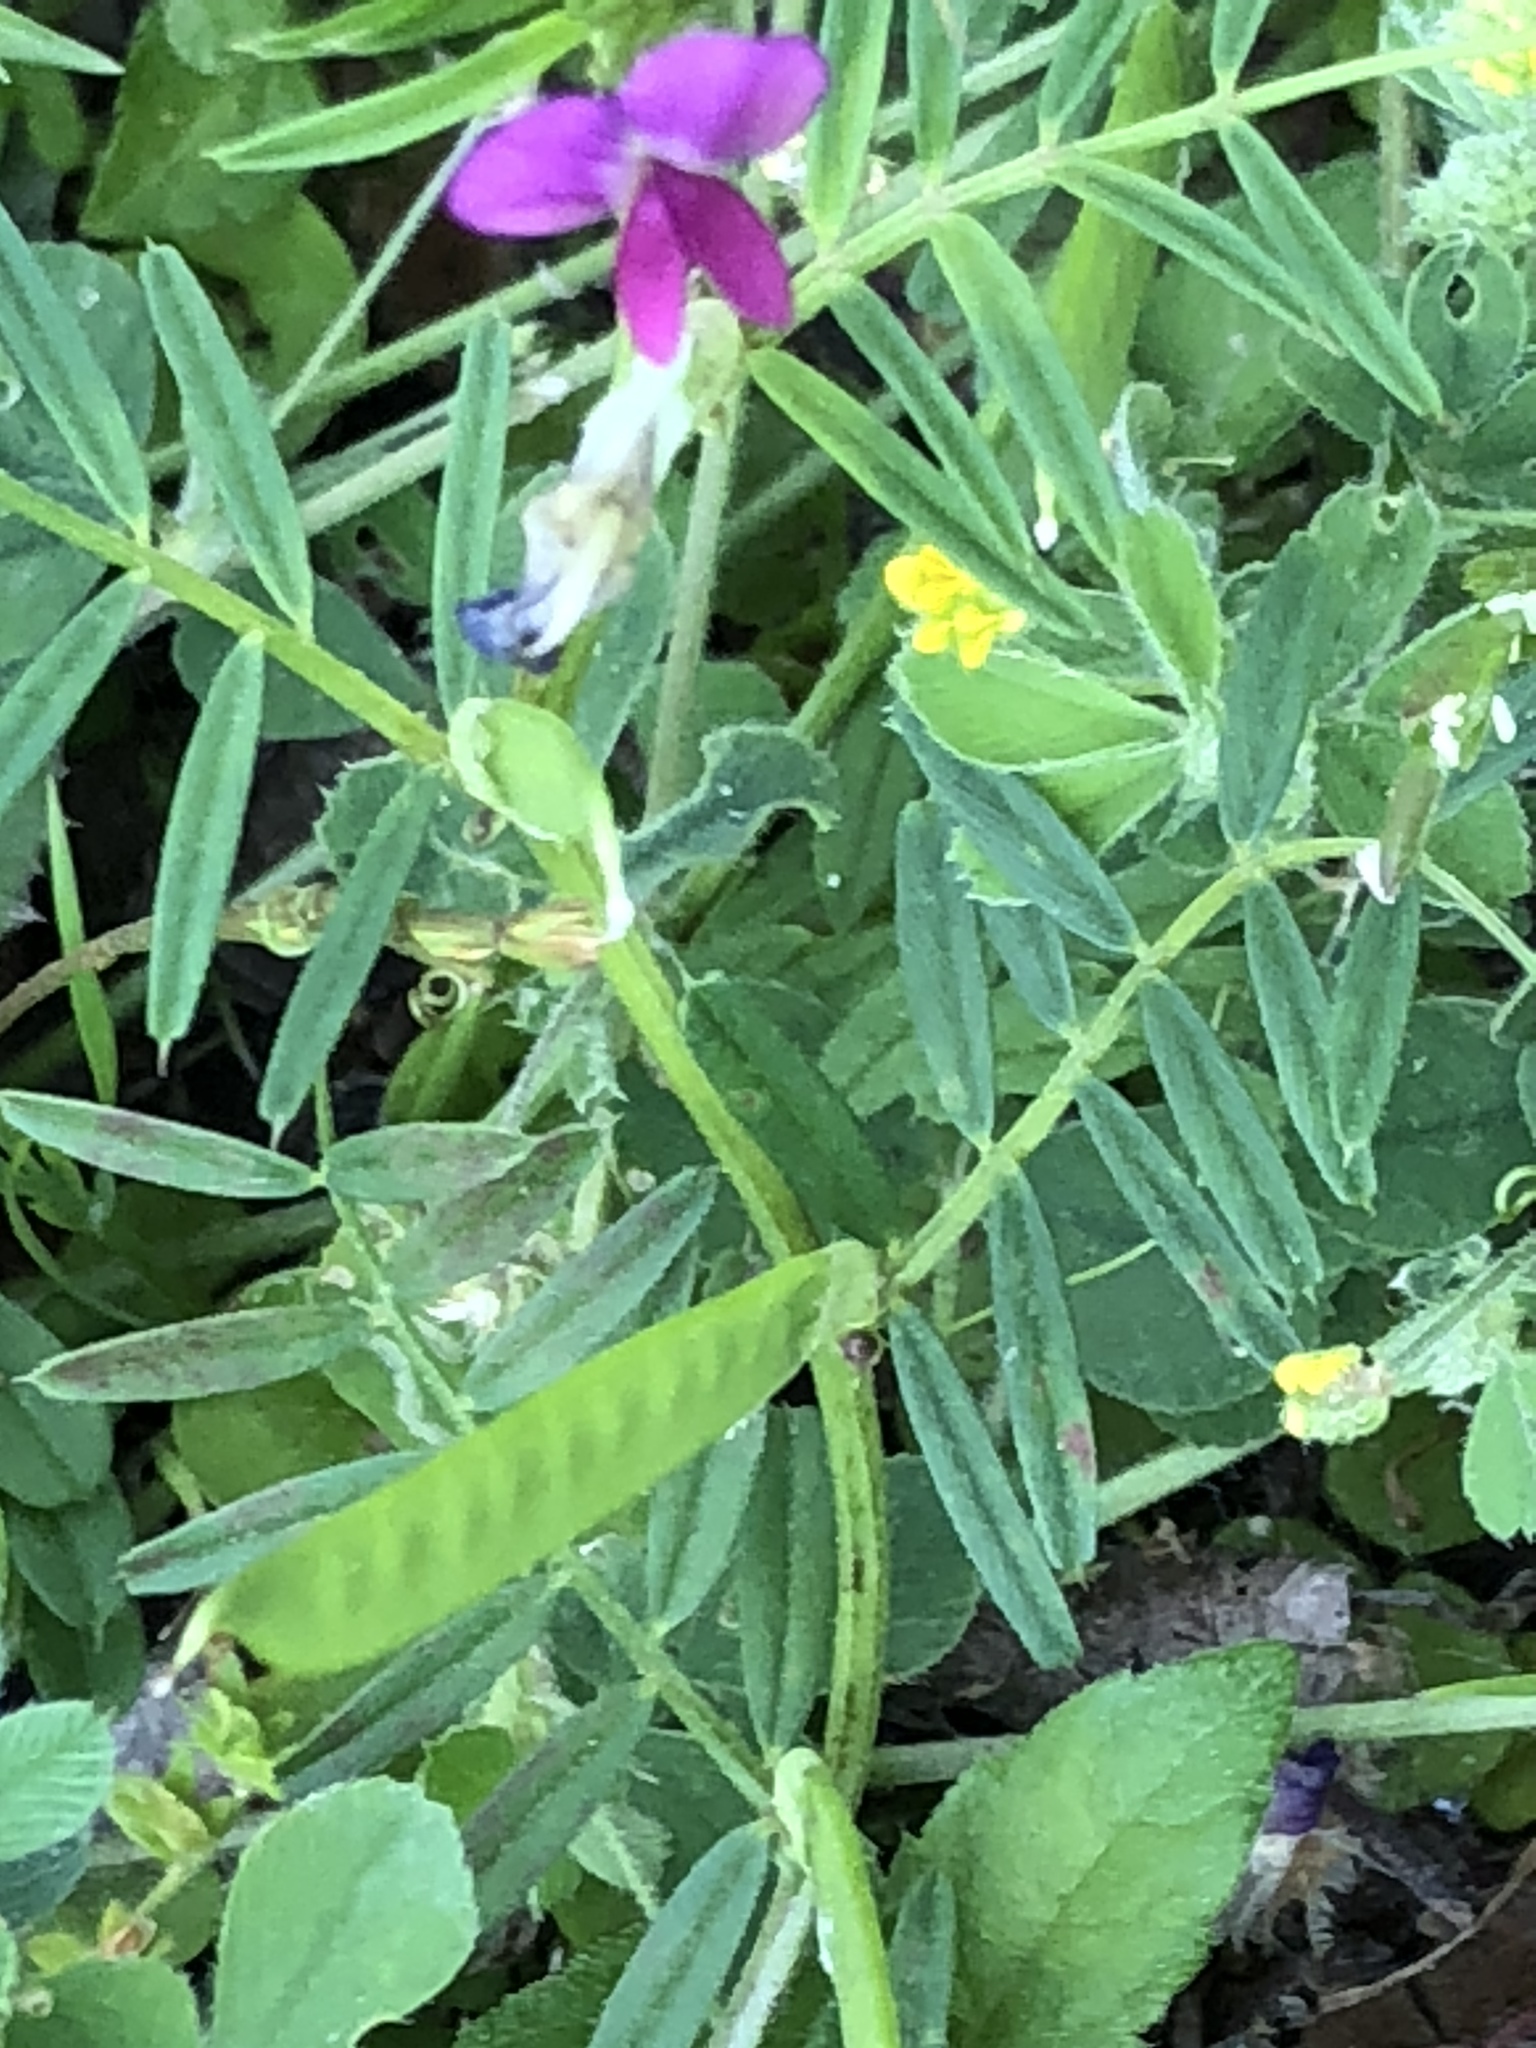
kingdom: Plantae
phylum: Tracheophyta
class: Magnoliopsida
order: Fabales
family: Fabaceae
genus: Vicia
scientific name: Vicia sativa
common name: Garden vetch
